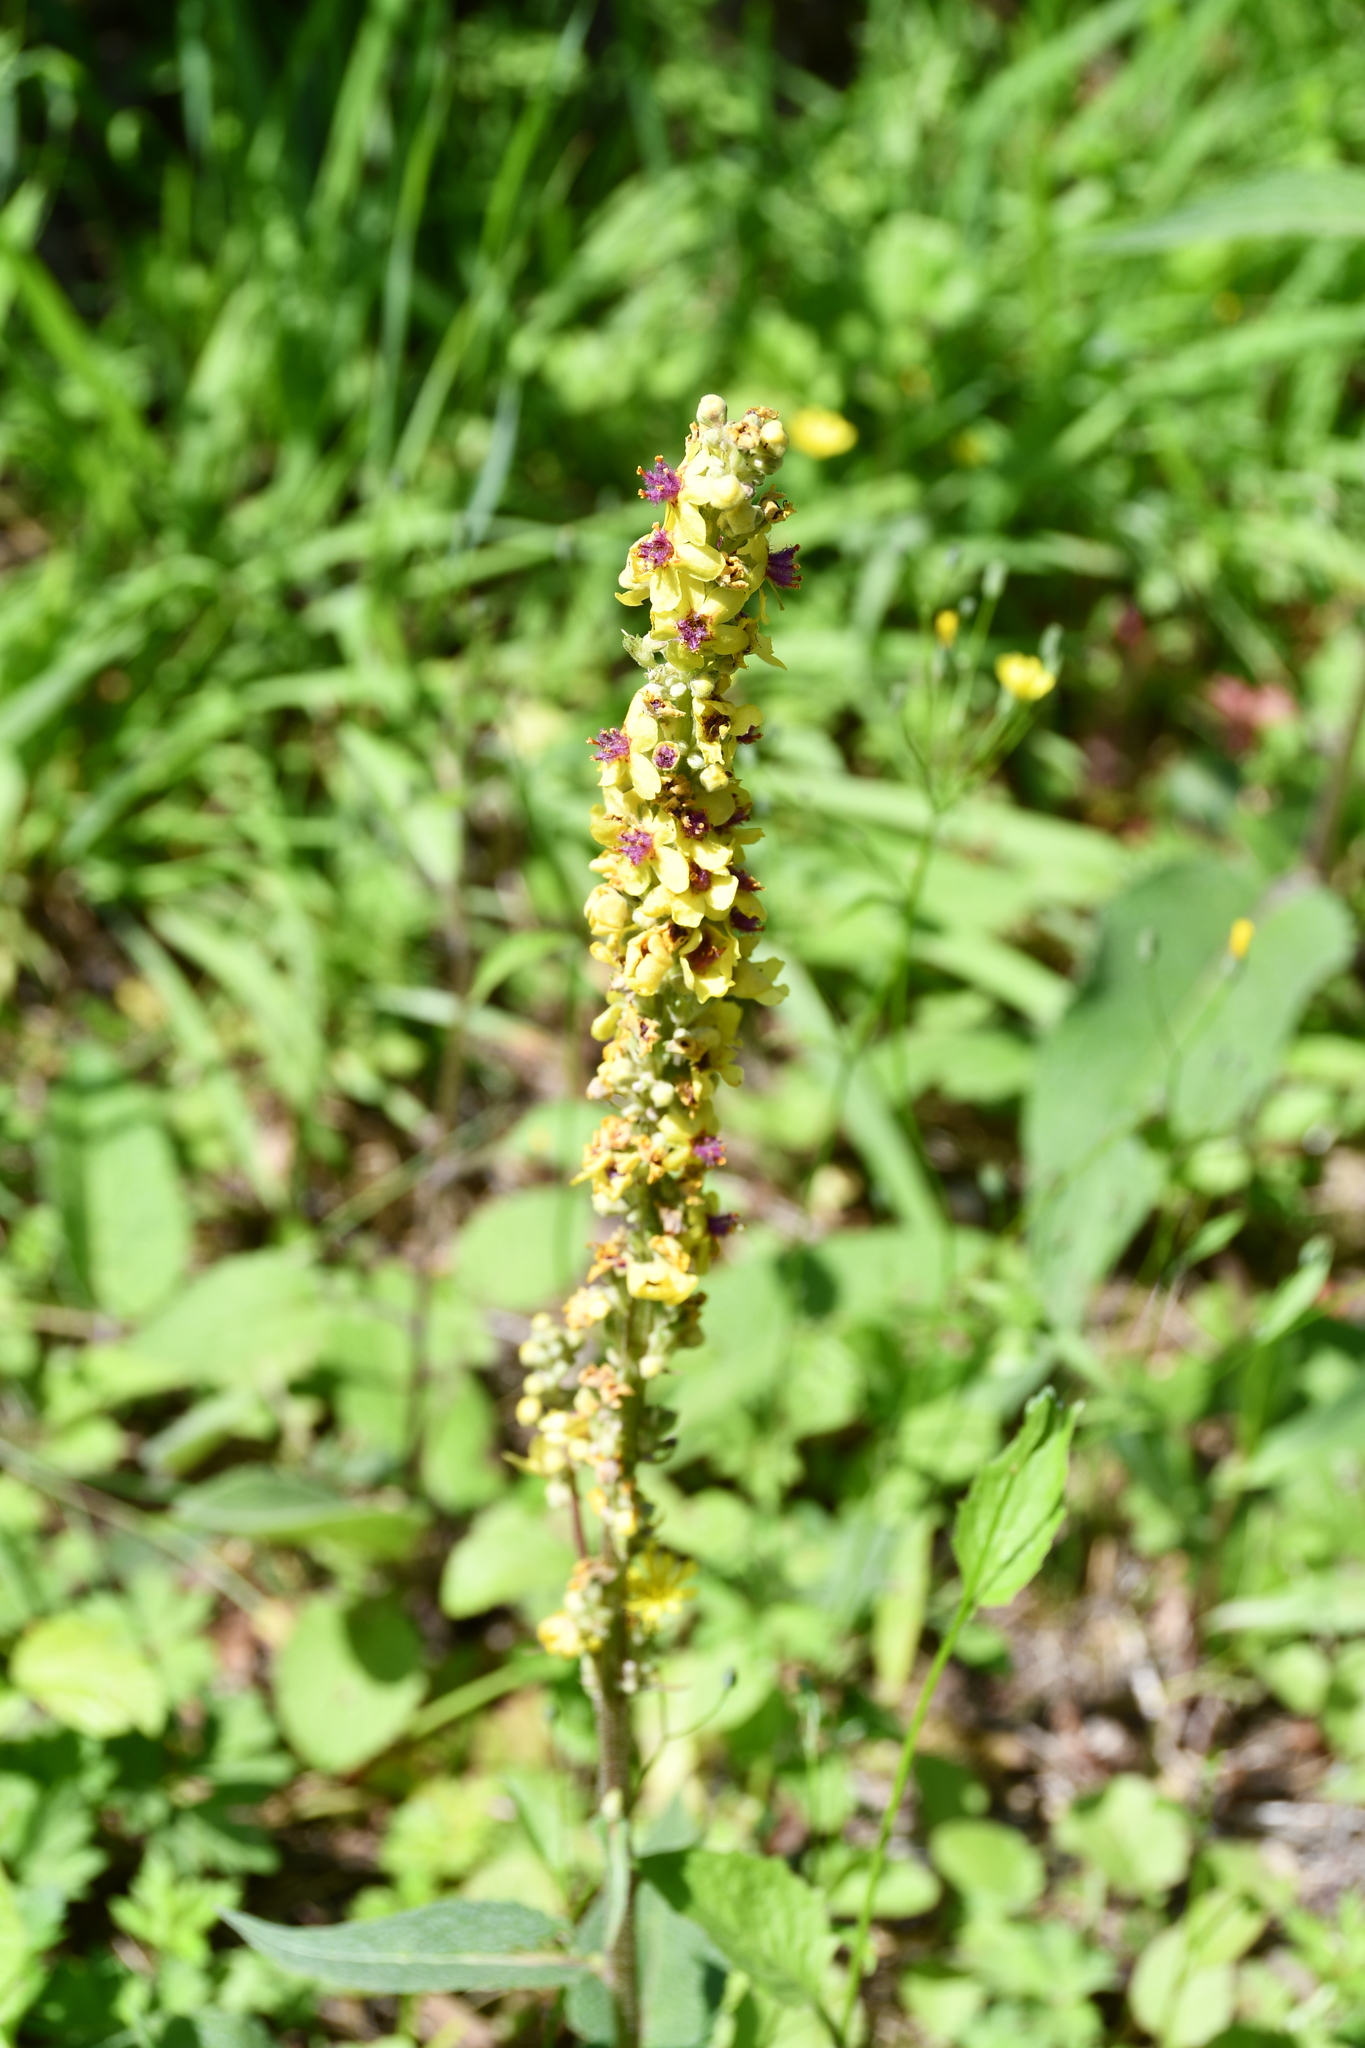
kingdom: Plantae
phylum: Tracheophyta
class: Magnoliopsida
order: Lamiales
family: Scrophulariaceae
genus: Verbascum
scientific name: Verbascum nigrum
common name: Dark mullein
